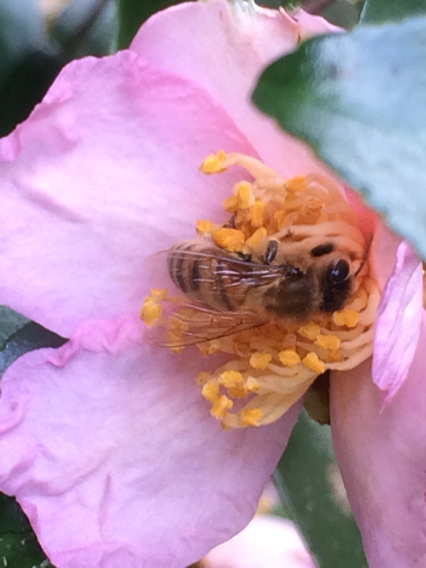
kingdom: Animalia
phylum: Arthropoda
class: Insecta
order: Hymenoptera
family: Apidae
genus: Apis
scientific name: Apis mellifera
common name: Honey bee
